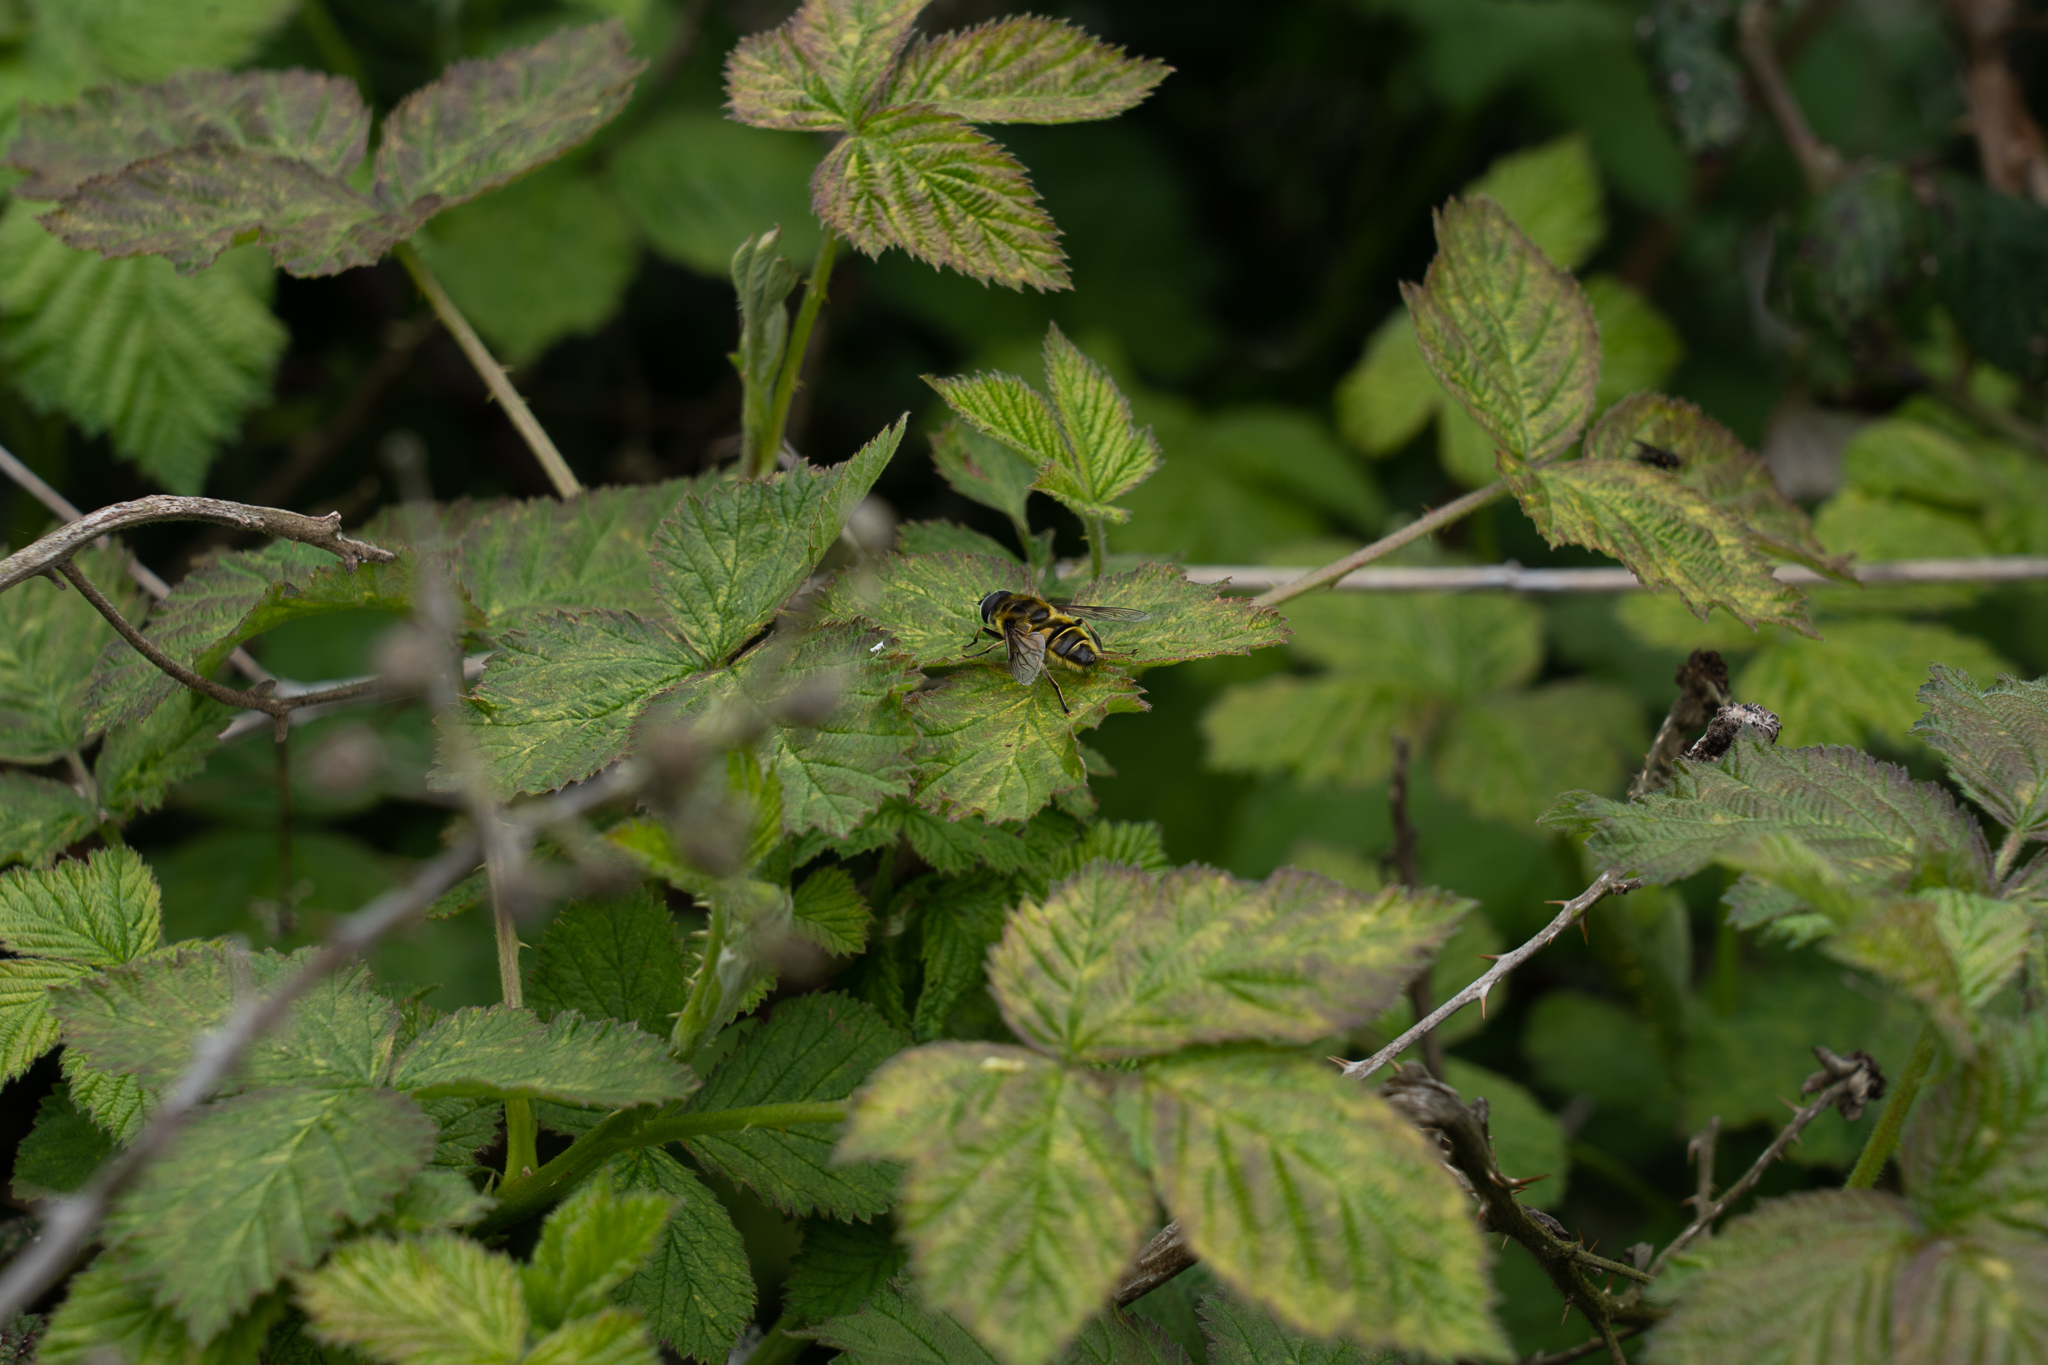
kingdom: Animalia
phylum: Arthropoda
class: Insecta
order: Diptera
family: Syrphidae
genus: Myathropa
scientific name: Myathropa florea
